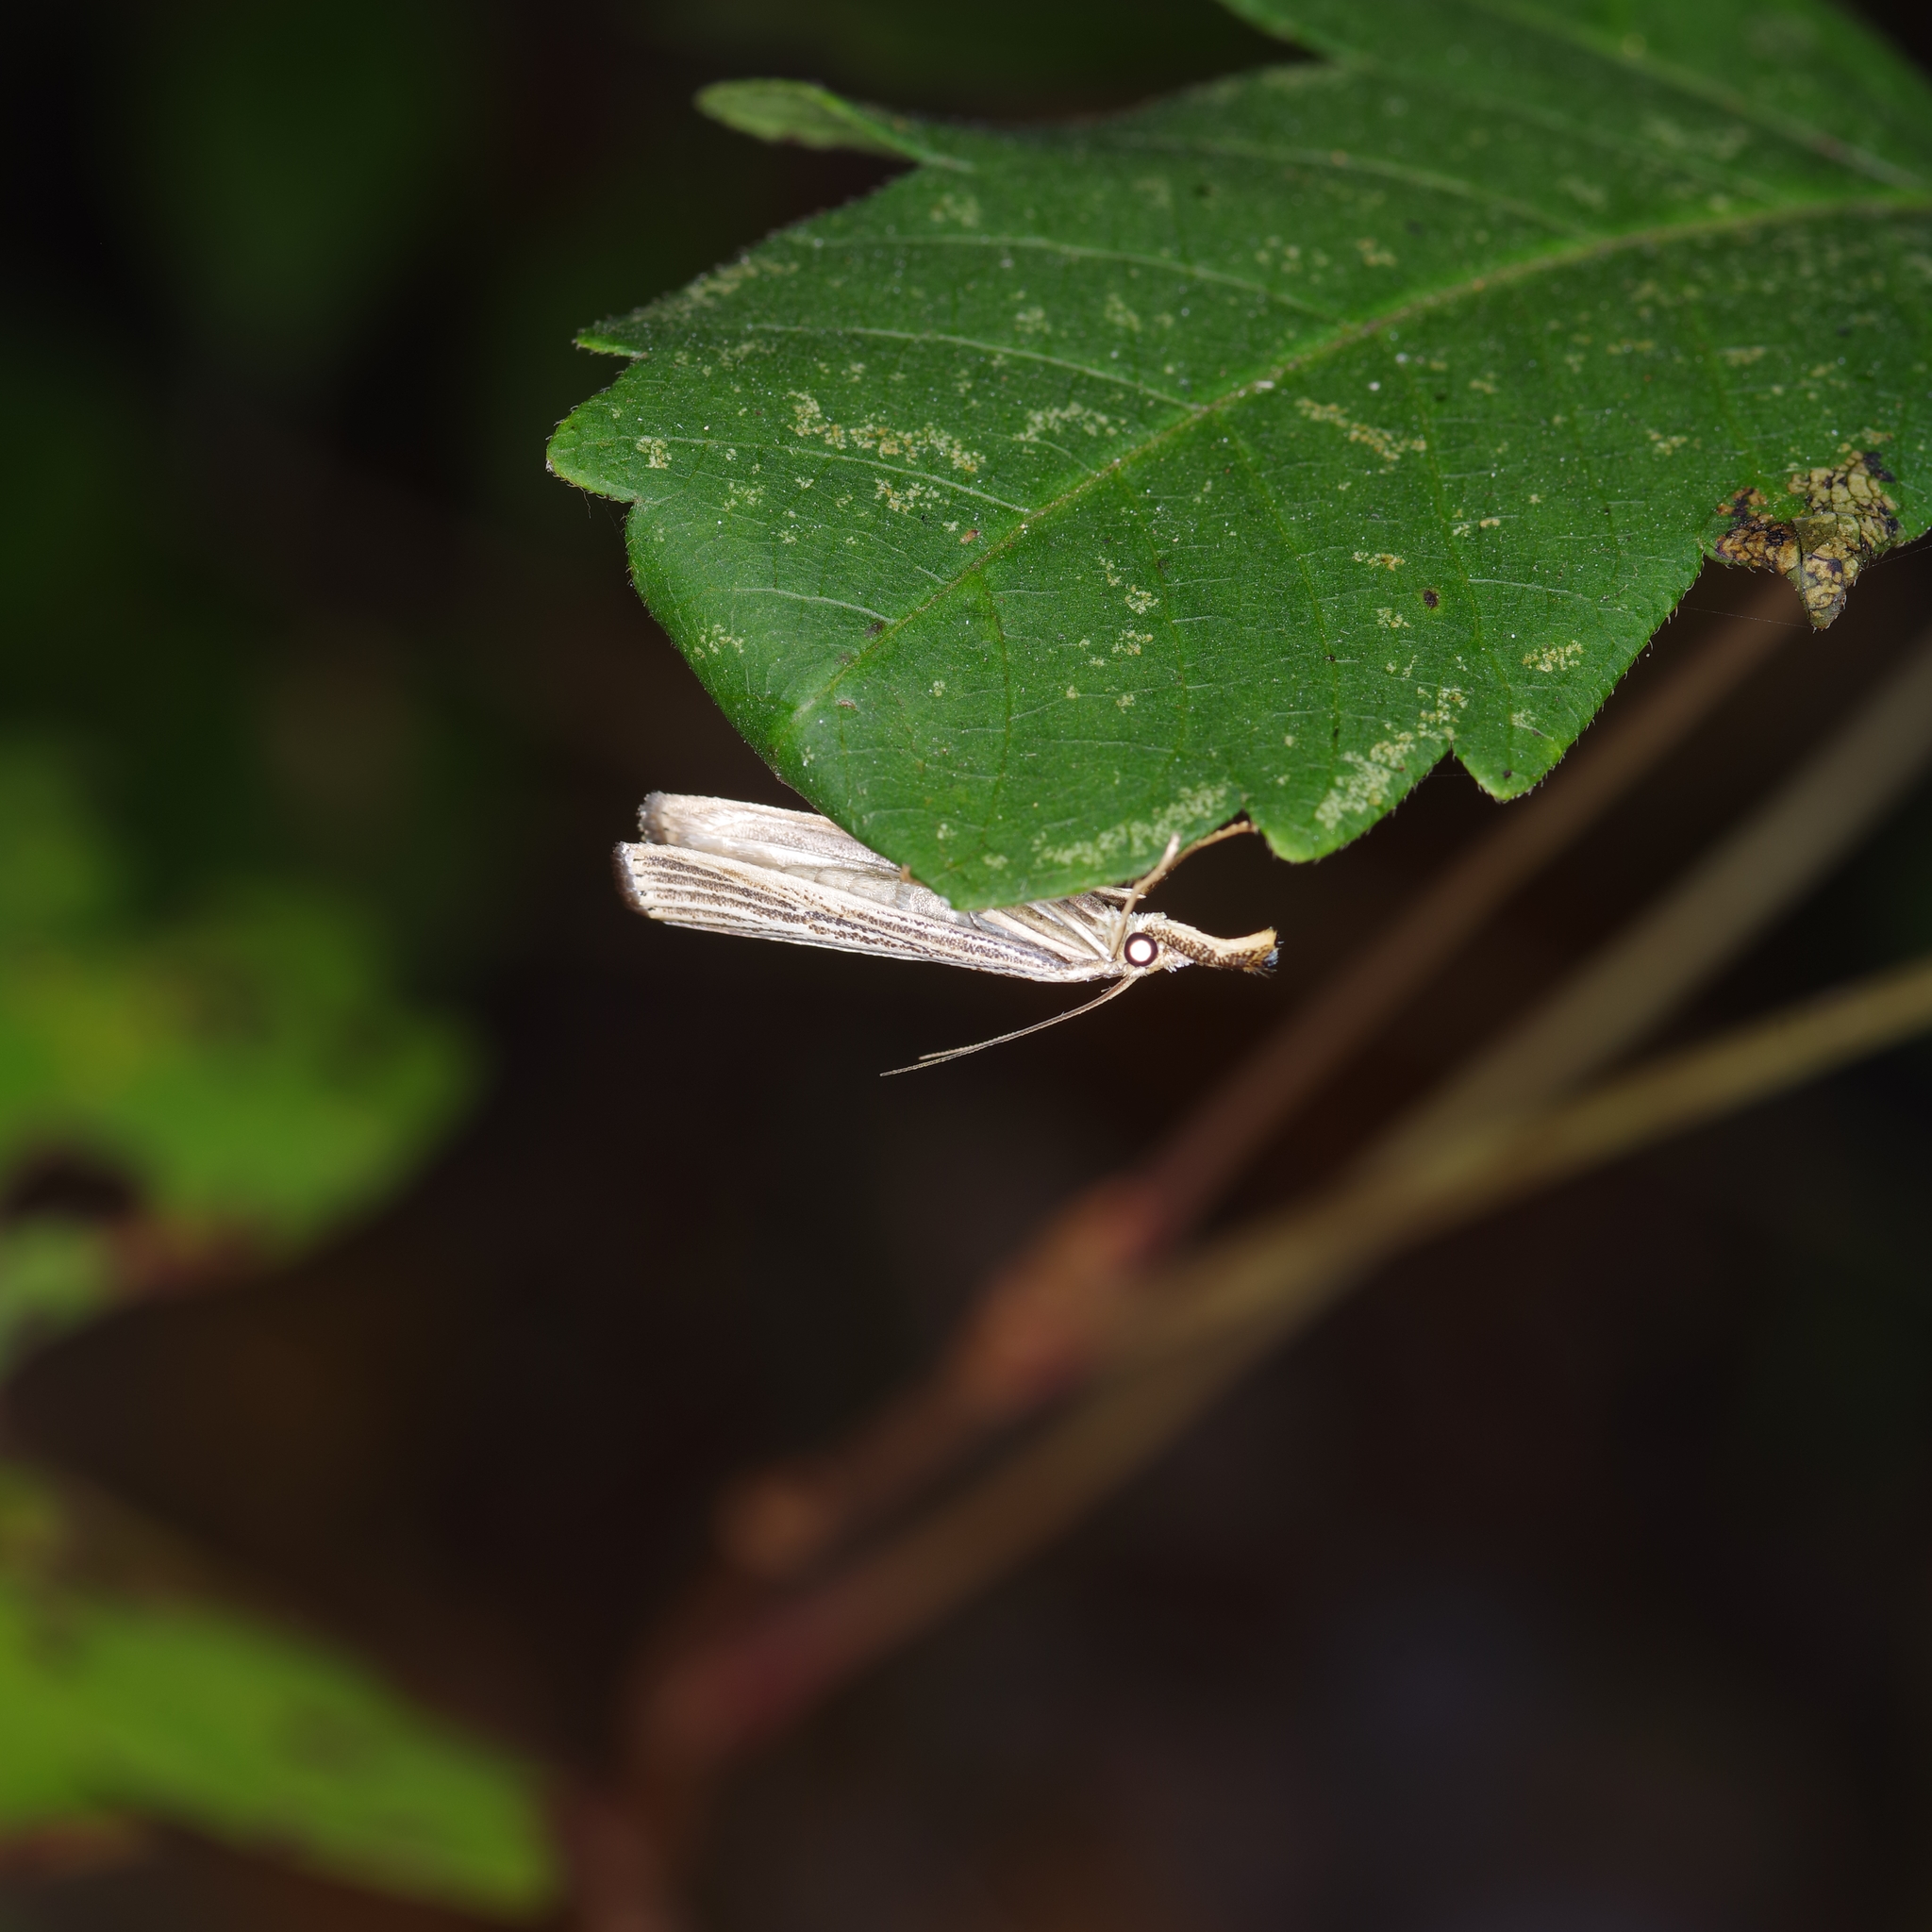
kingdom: Animalia
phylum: Arthropoda
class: Insecta
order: Lepidoptera
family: Crambidae
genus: Agriphila
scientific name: Agriphila vulgivagellus
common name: Vagabond crambus moth
